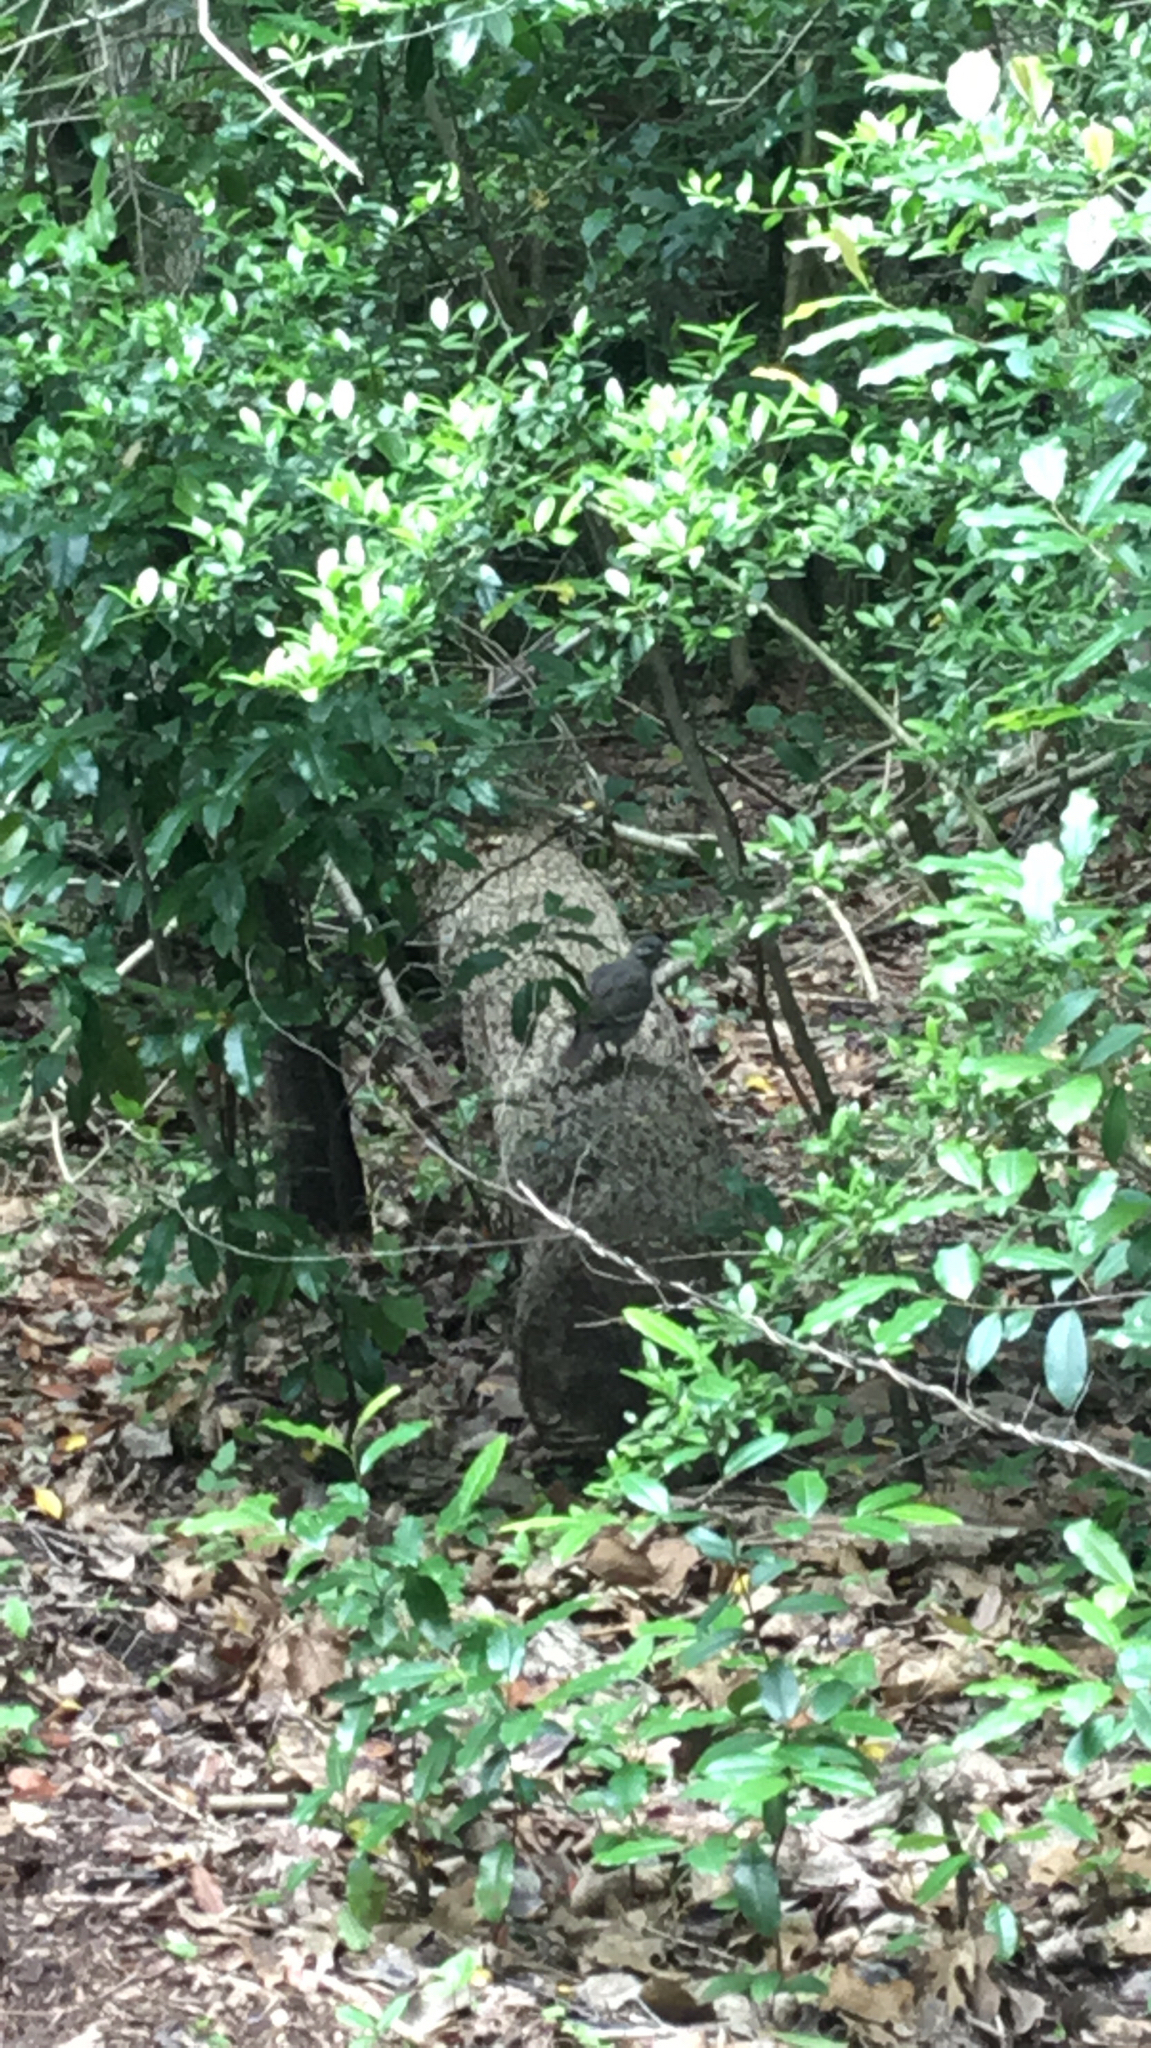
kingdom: Animalia
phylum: Chordata
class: Aves
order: Columbiformes
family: Columbidae
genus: Zenaida
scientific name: Zenaida asiatica
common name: White-winged dove
